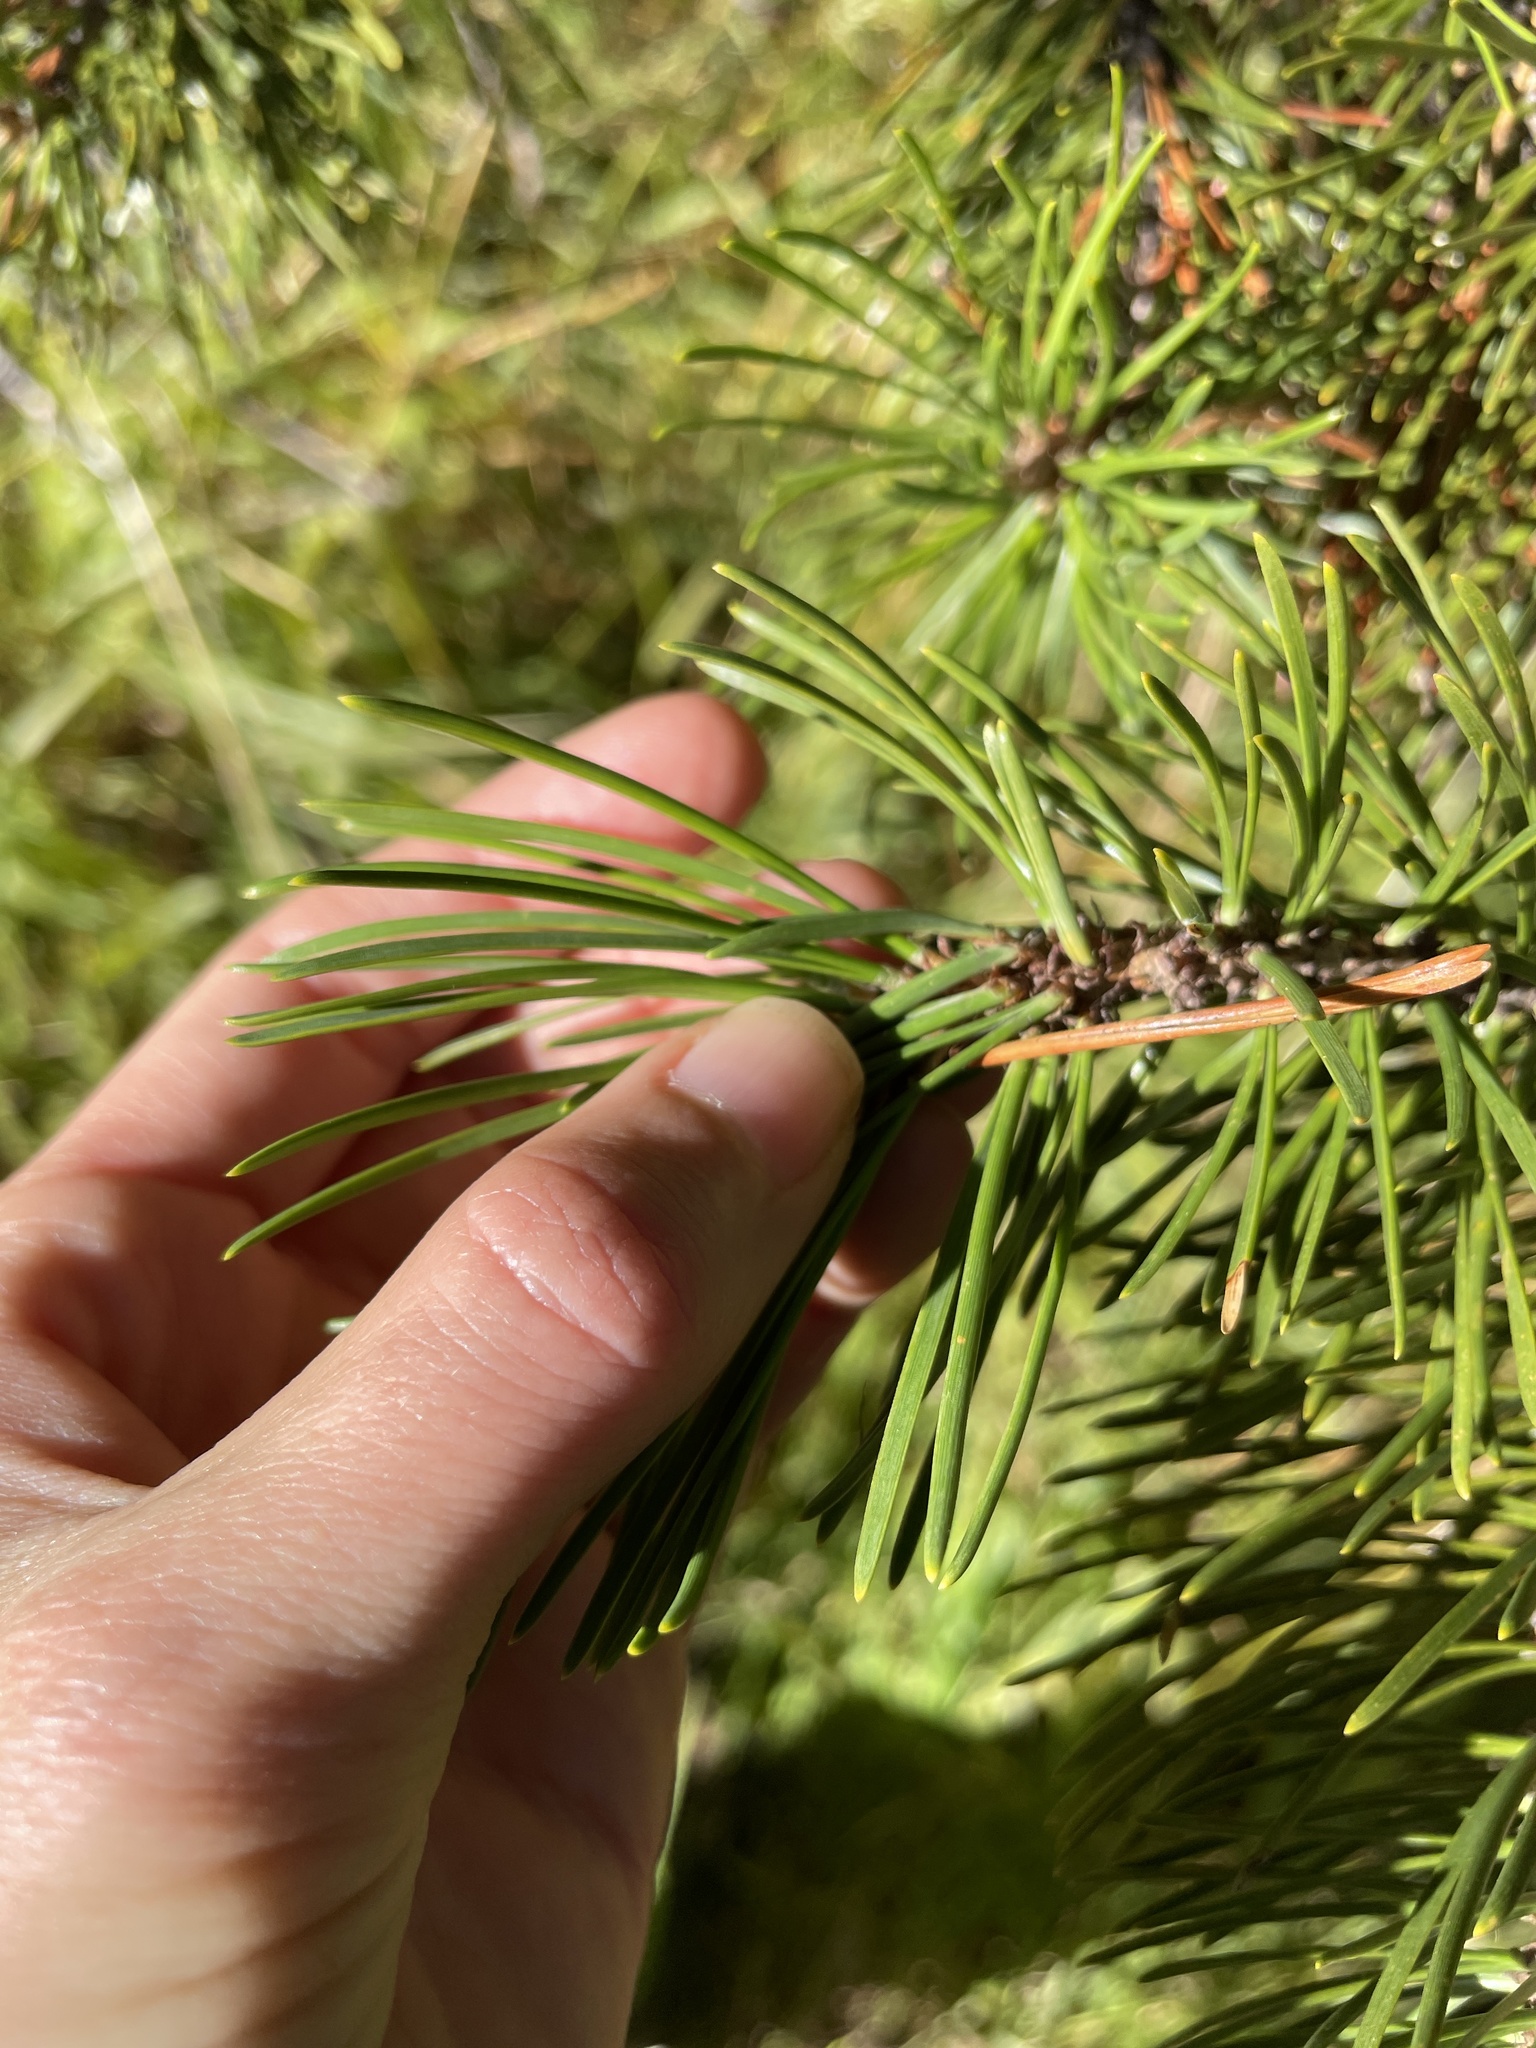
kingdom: Plantae
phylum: Tracheophyta
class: Pinopsida
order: Pinales
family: Pinaceae
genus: Pinus
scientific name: Pinus contorta
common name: Lodgepole pine
